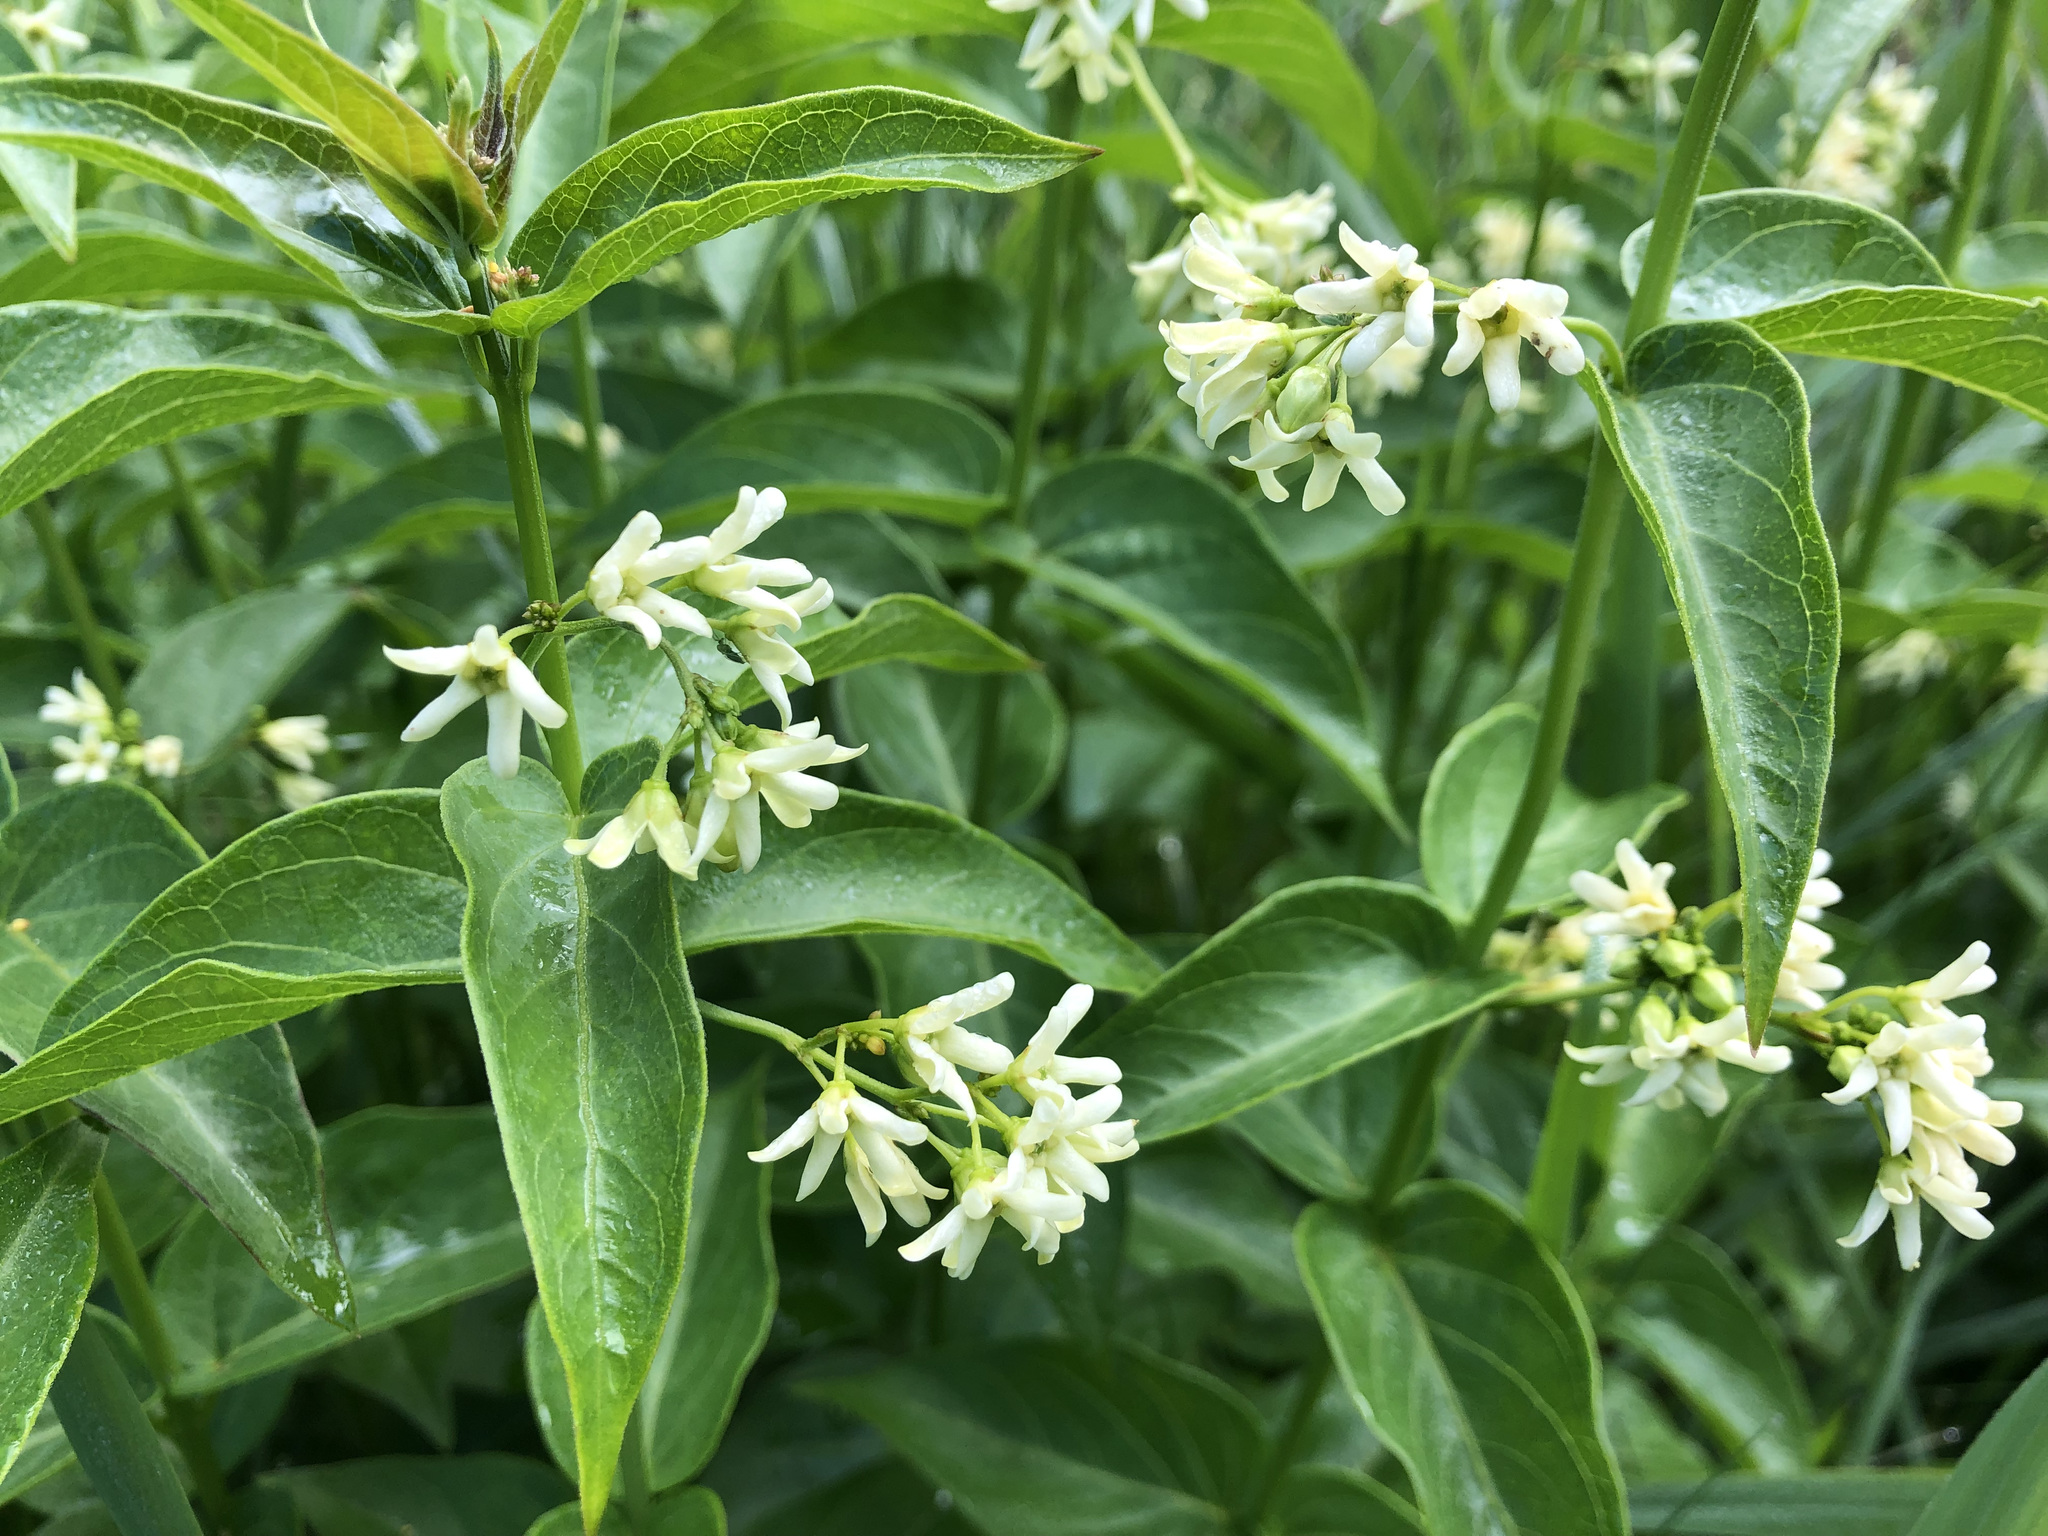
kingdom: Plantae
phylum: Tracheophyta
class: Magnoliopsida
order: Gentianales
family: Apocynaceae
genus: Vincetoxicum
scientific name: Vincetoxicum hirundinaria
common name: White swallowwort
